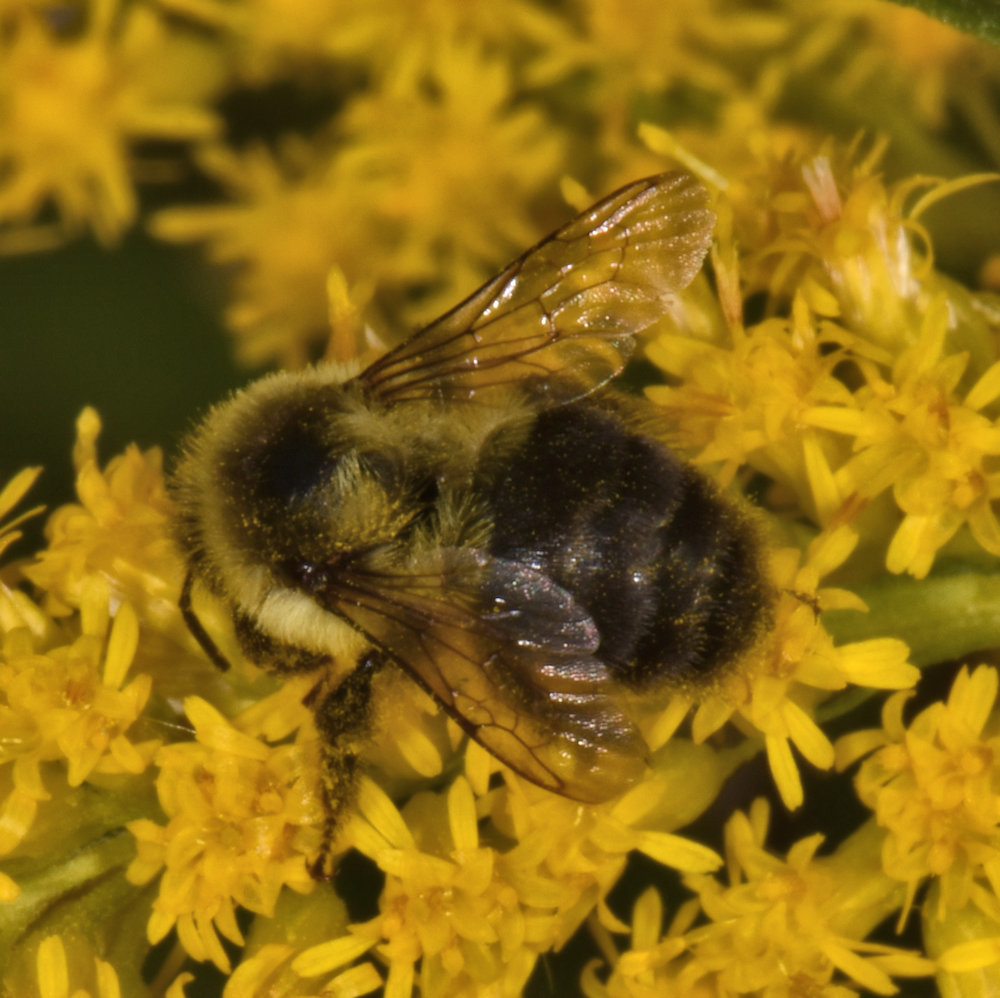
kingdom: Animalia
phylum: Arthropoda
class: Insecta
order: Hymenoptera
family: Apidae
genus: Bombus
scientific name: Bombus impatiens
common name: Common eastern bumble bee
